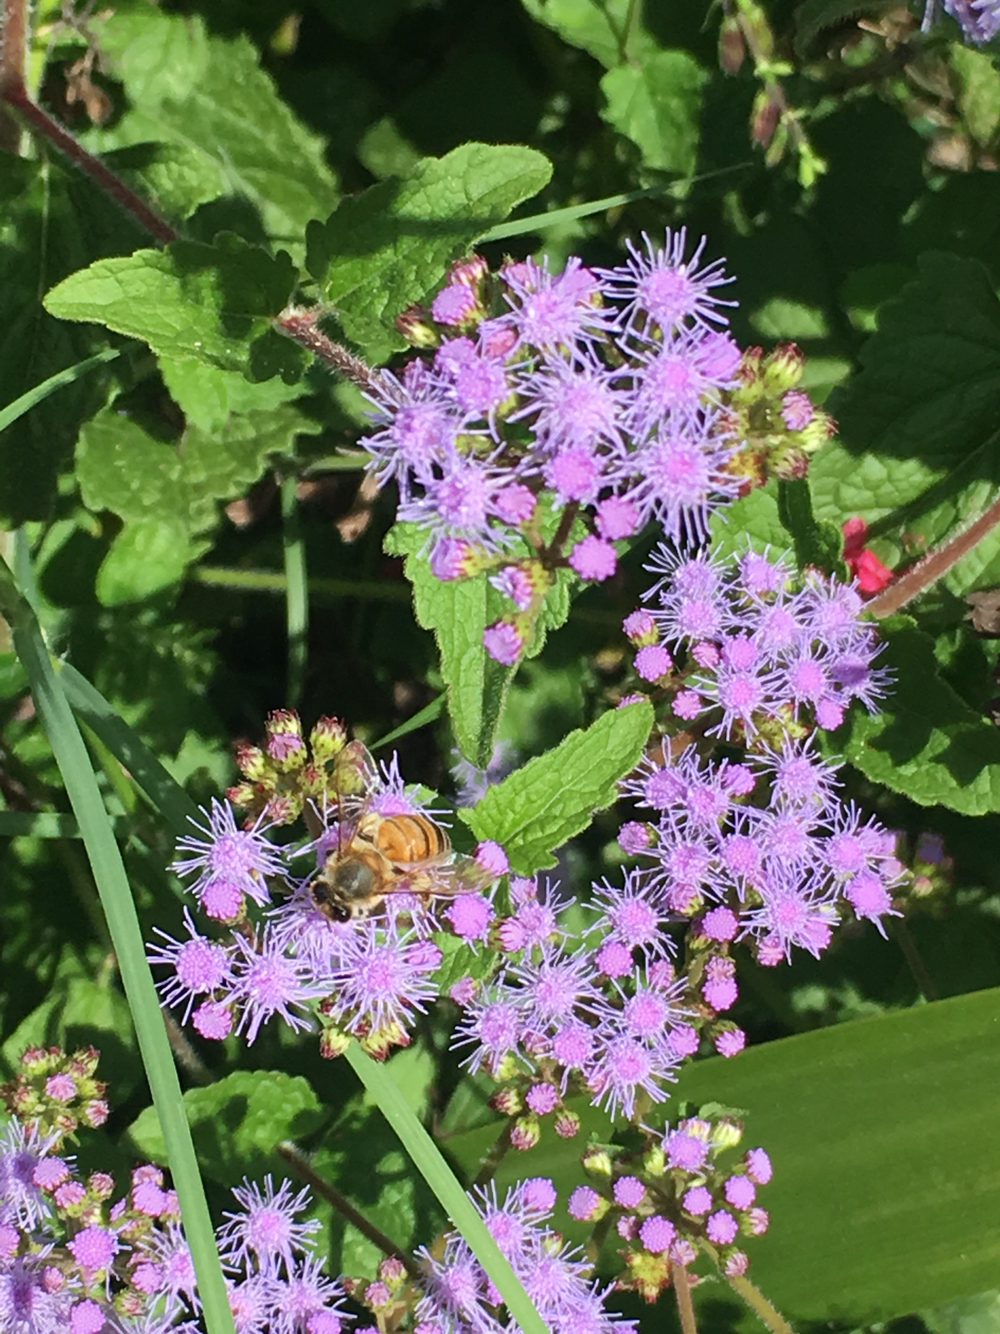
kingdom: Animalia
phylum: Arthropoda
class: Insecta
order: Hymenoptera
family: Apidae
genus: Apis
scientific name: Apis mellifera
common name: Honey bee
